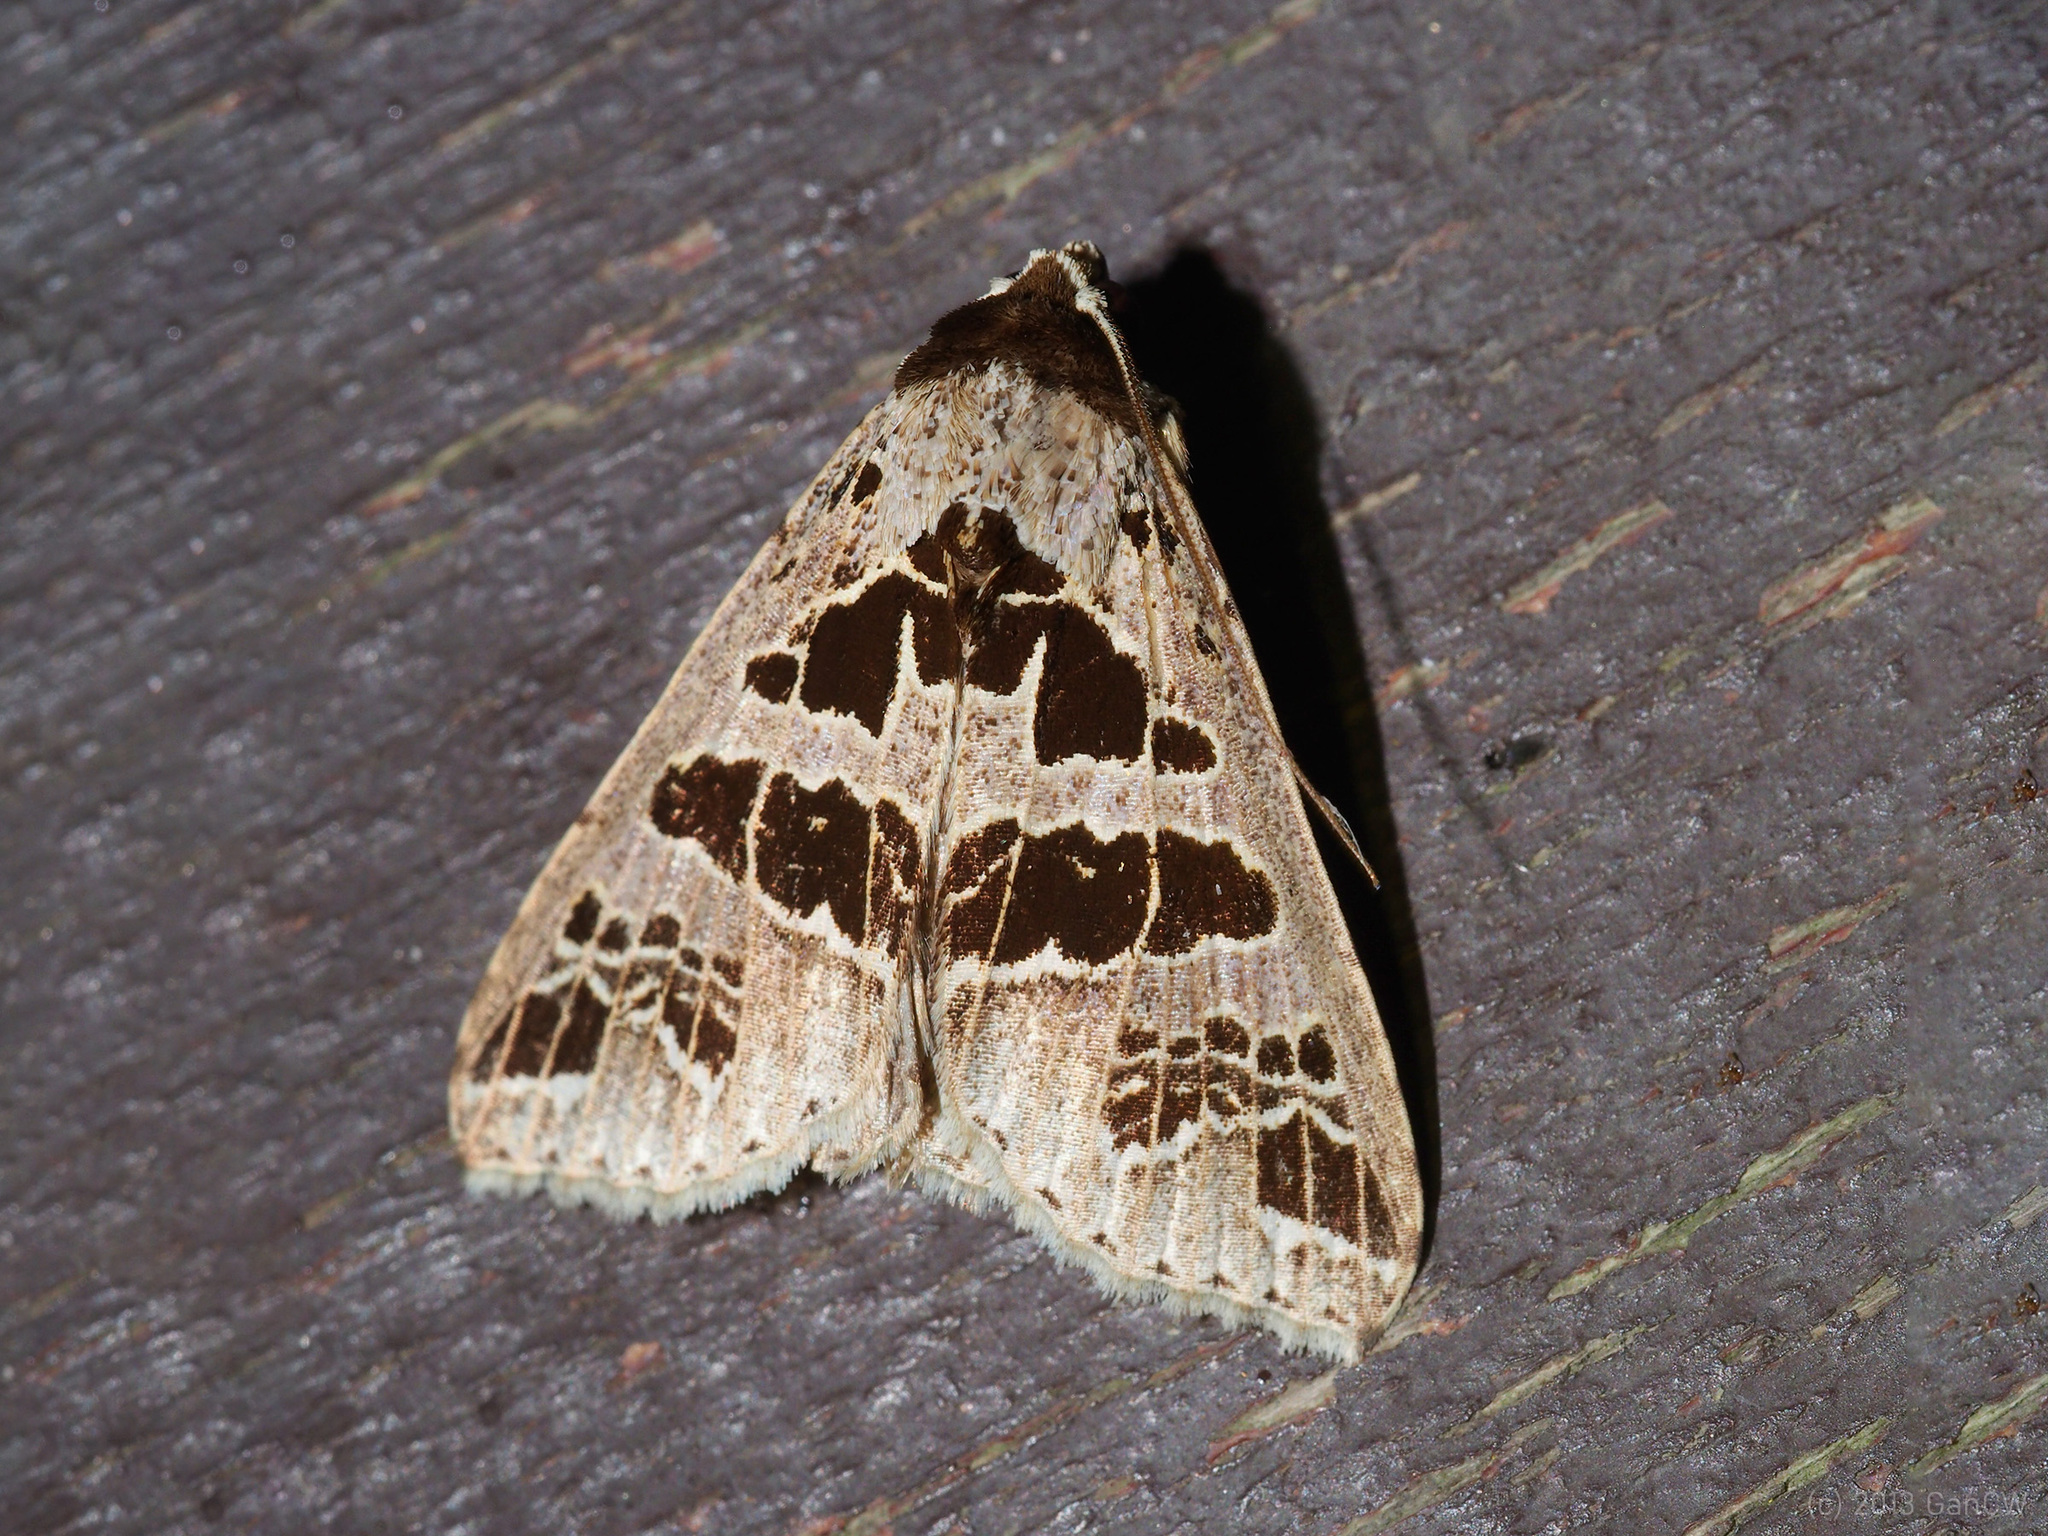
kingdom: Animalia
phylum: Arthropoda
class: Insecta
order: Lepidoptera
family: Erebidae
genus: Anoba
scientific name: Anoba rigida
